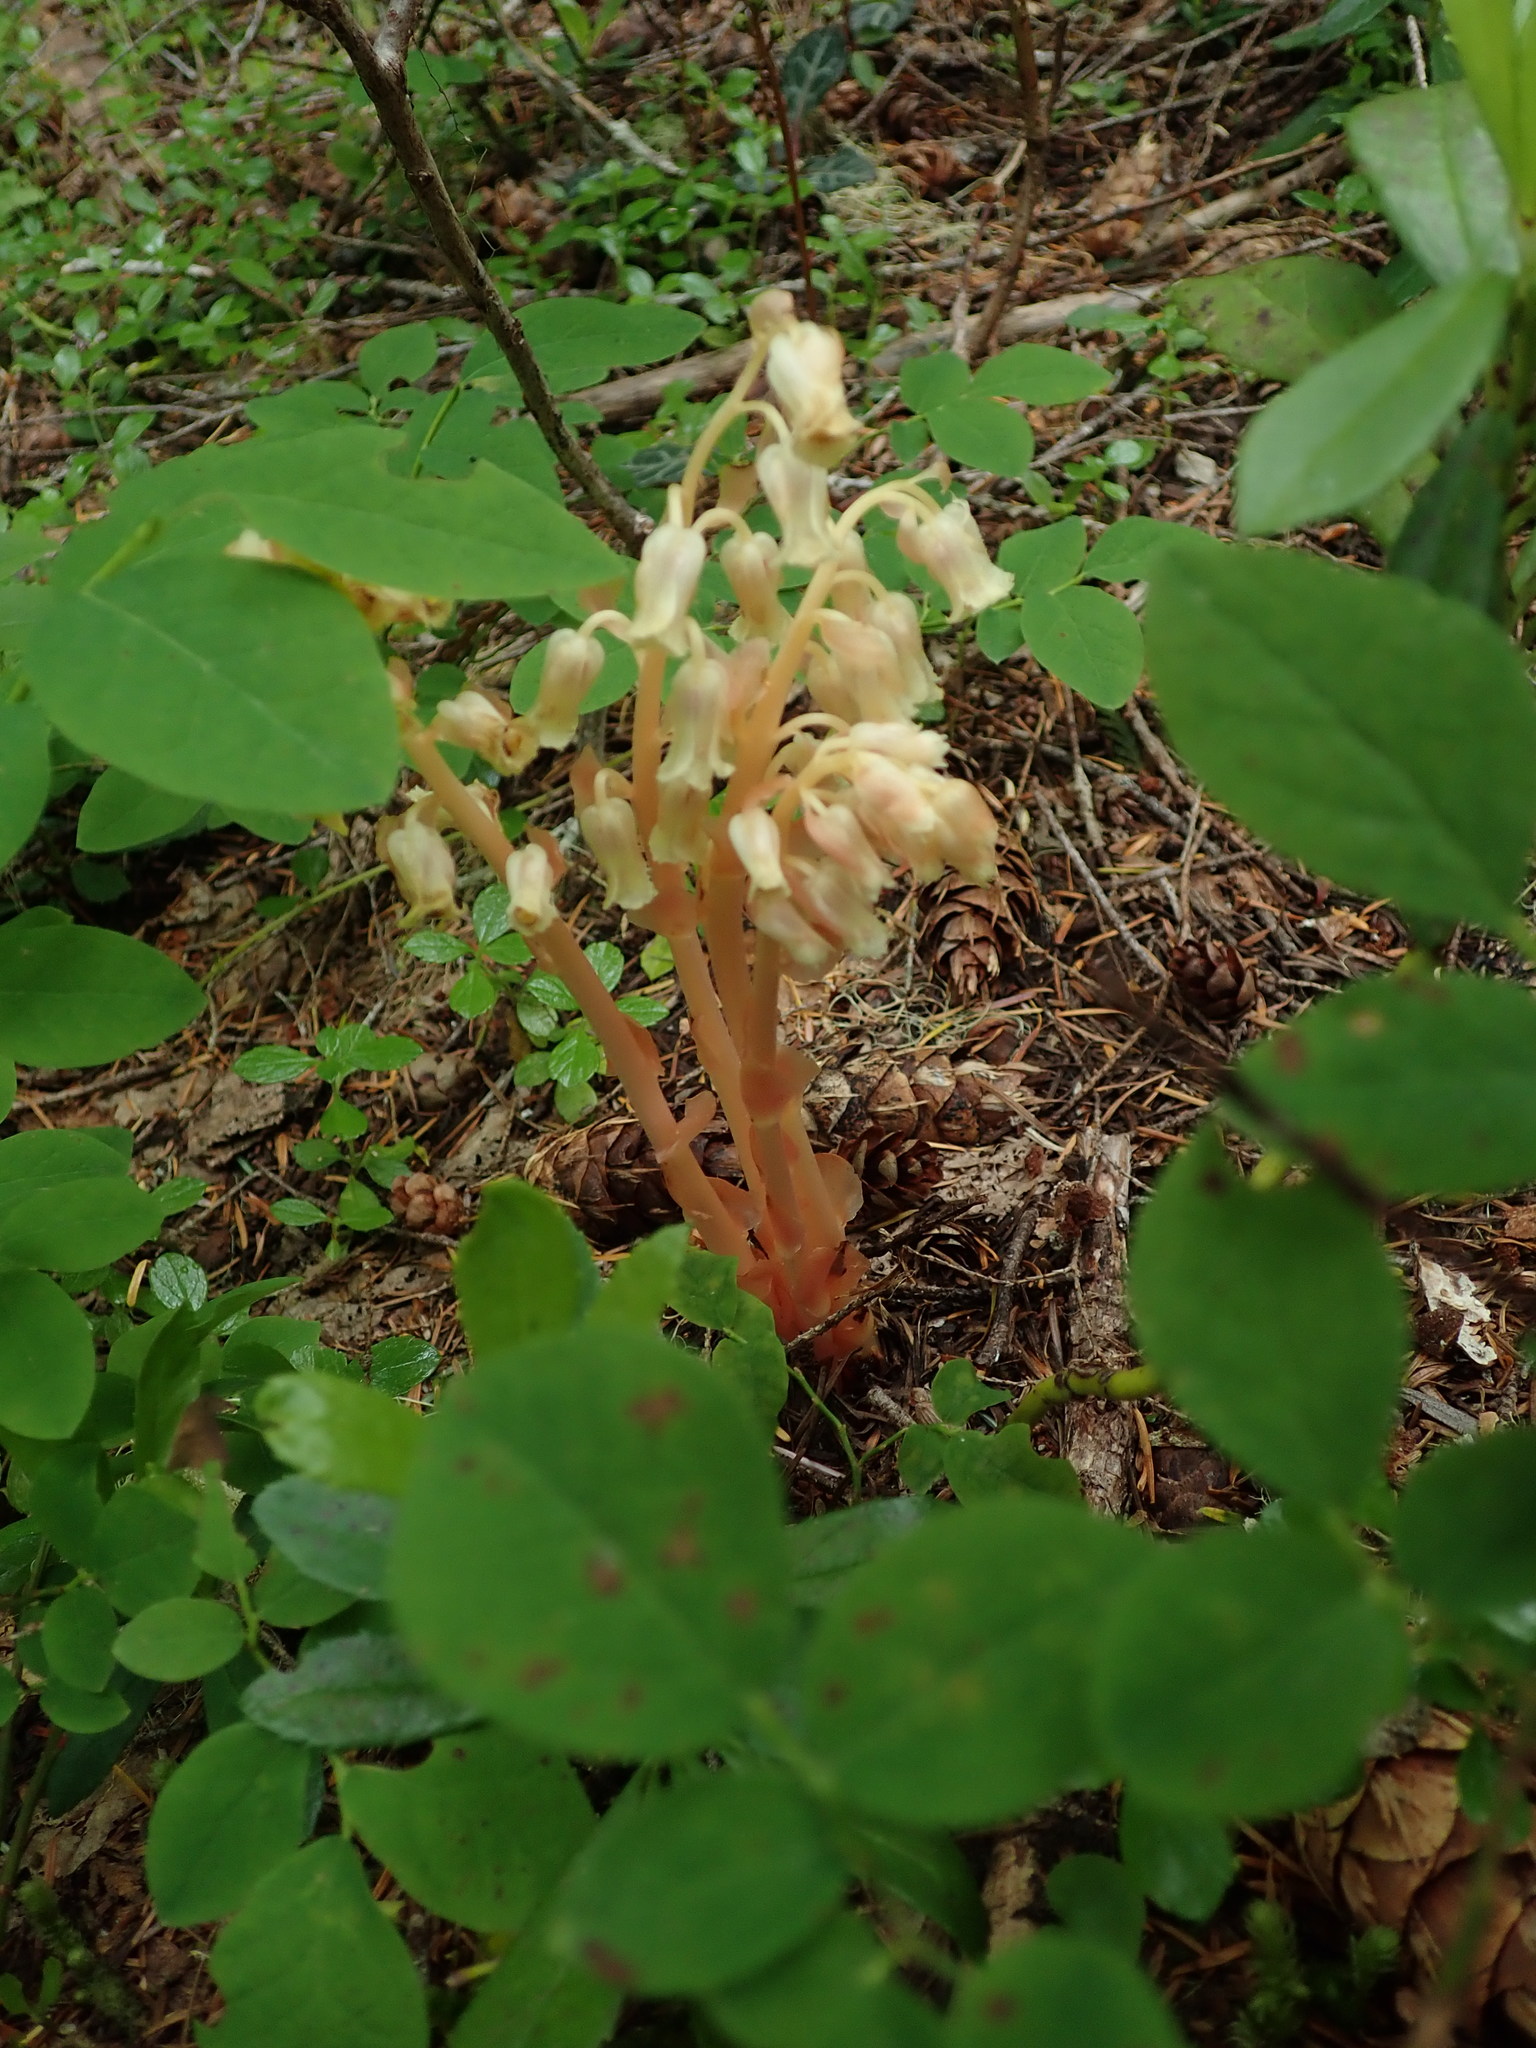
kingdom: Plantae
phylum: Tracheophyta
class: Magnoliopsida
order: Ericales
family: Ericaceae
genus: Hypopitys
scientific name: Hypopitys monotropa
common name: Yellow bird's-nest
